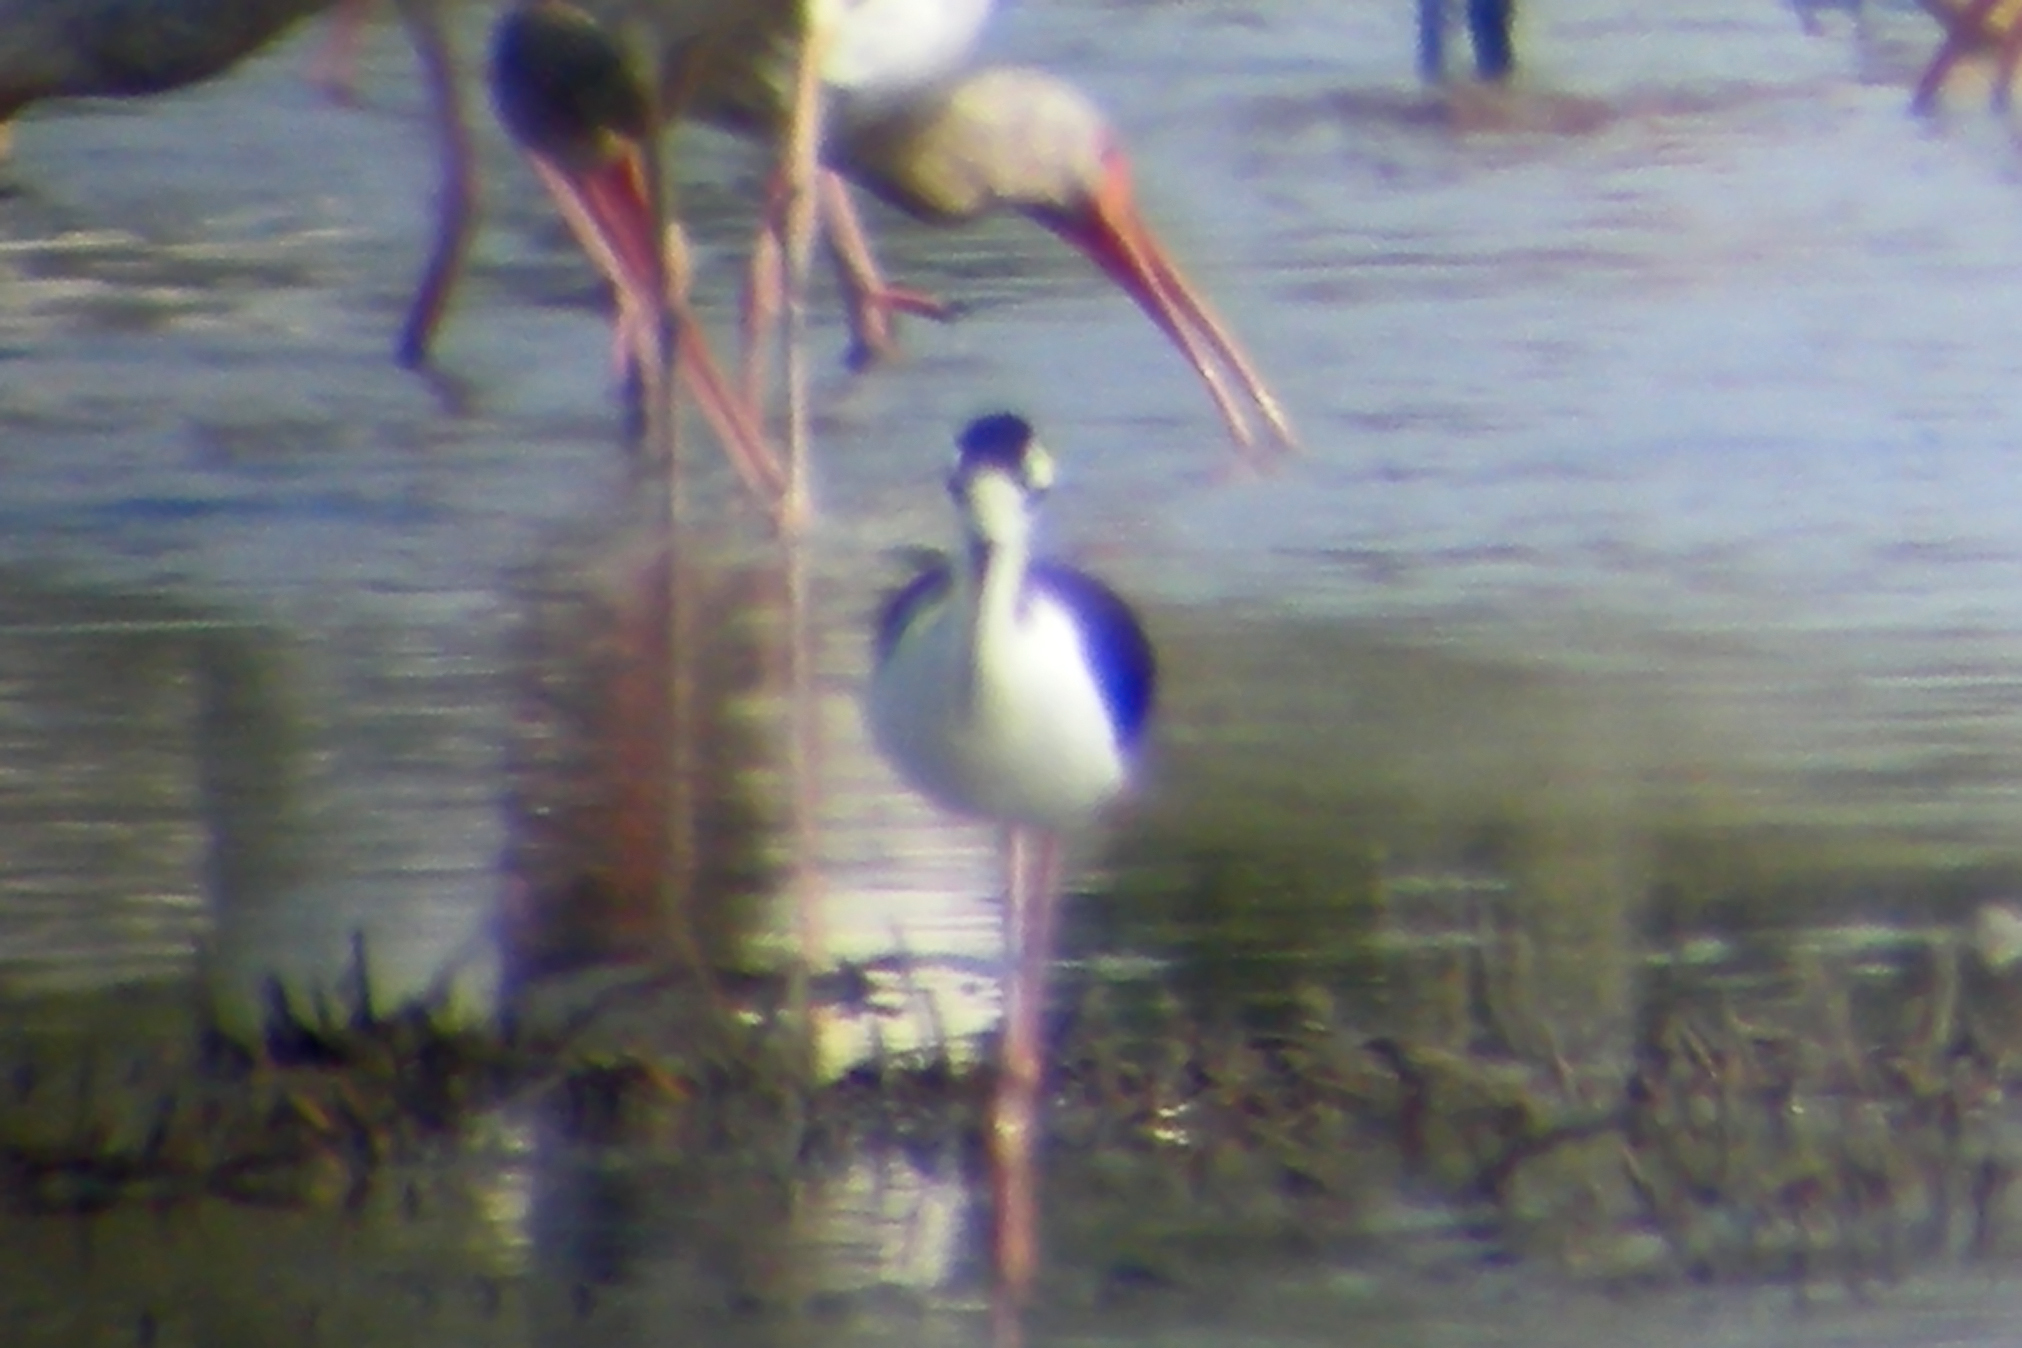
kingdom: Animalia
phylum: Chordata
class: Aves
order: Charadriiformes
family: Recurvirostridae
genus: Himantopus
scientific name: Himantopus mexicanus
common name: Black-necked stilt
